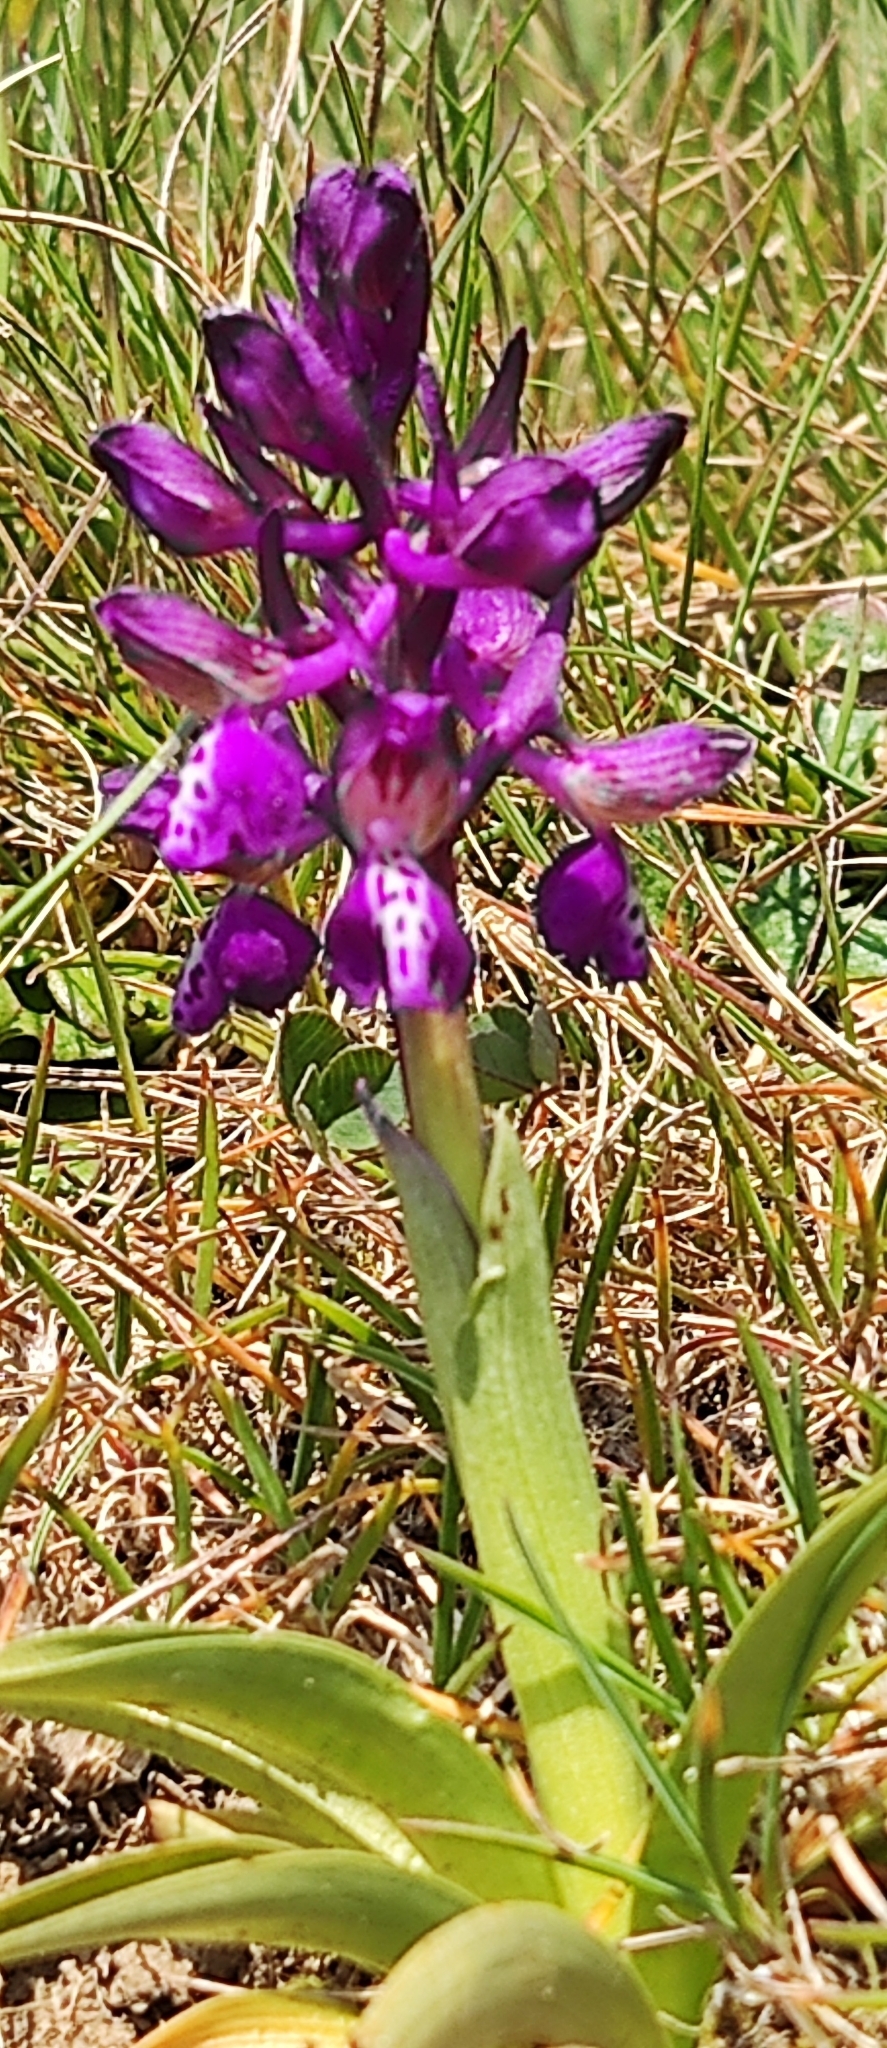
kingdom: Plantae
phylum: Tracheophyta
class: Liliopsida
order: Asparagales
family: Orchidaceae
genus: Anacamptis
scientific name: Anacamptis morio
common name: Green-winged orchid
